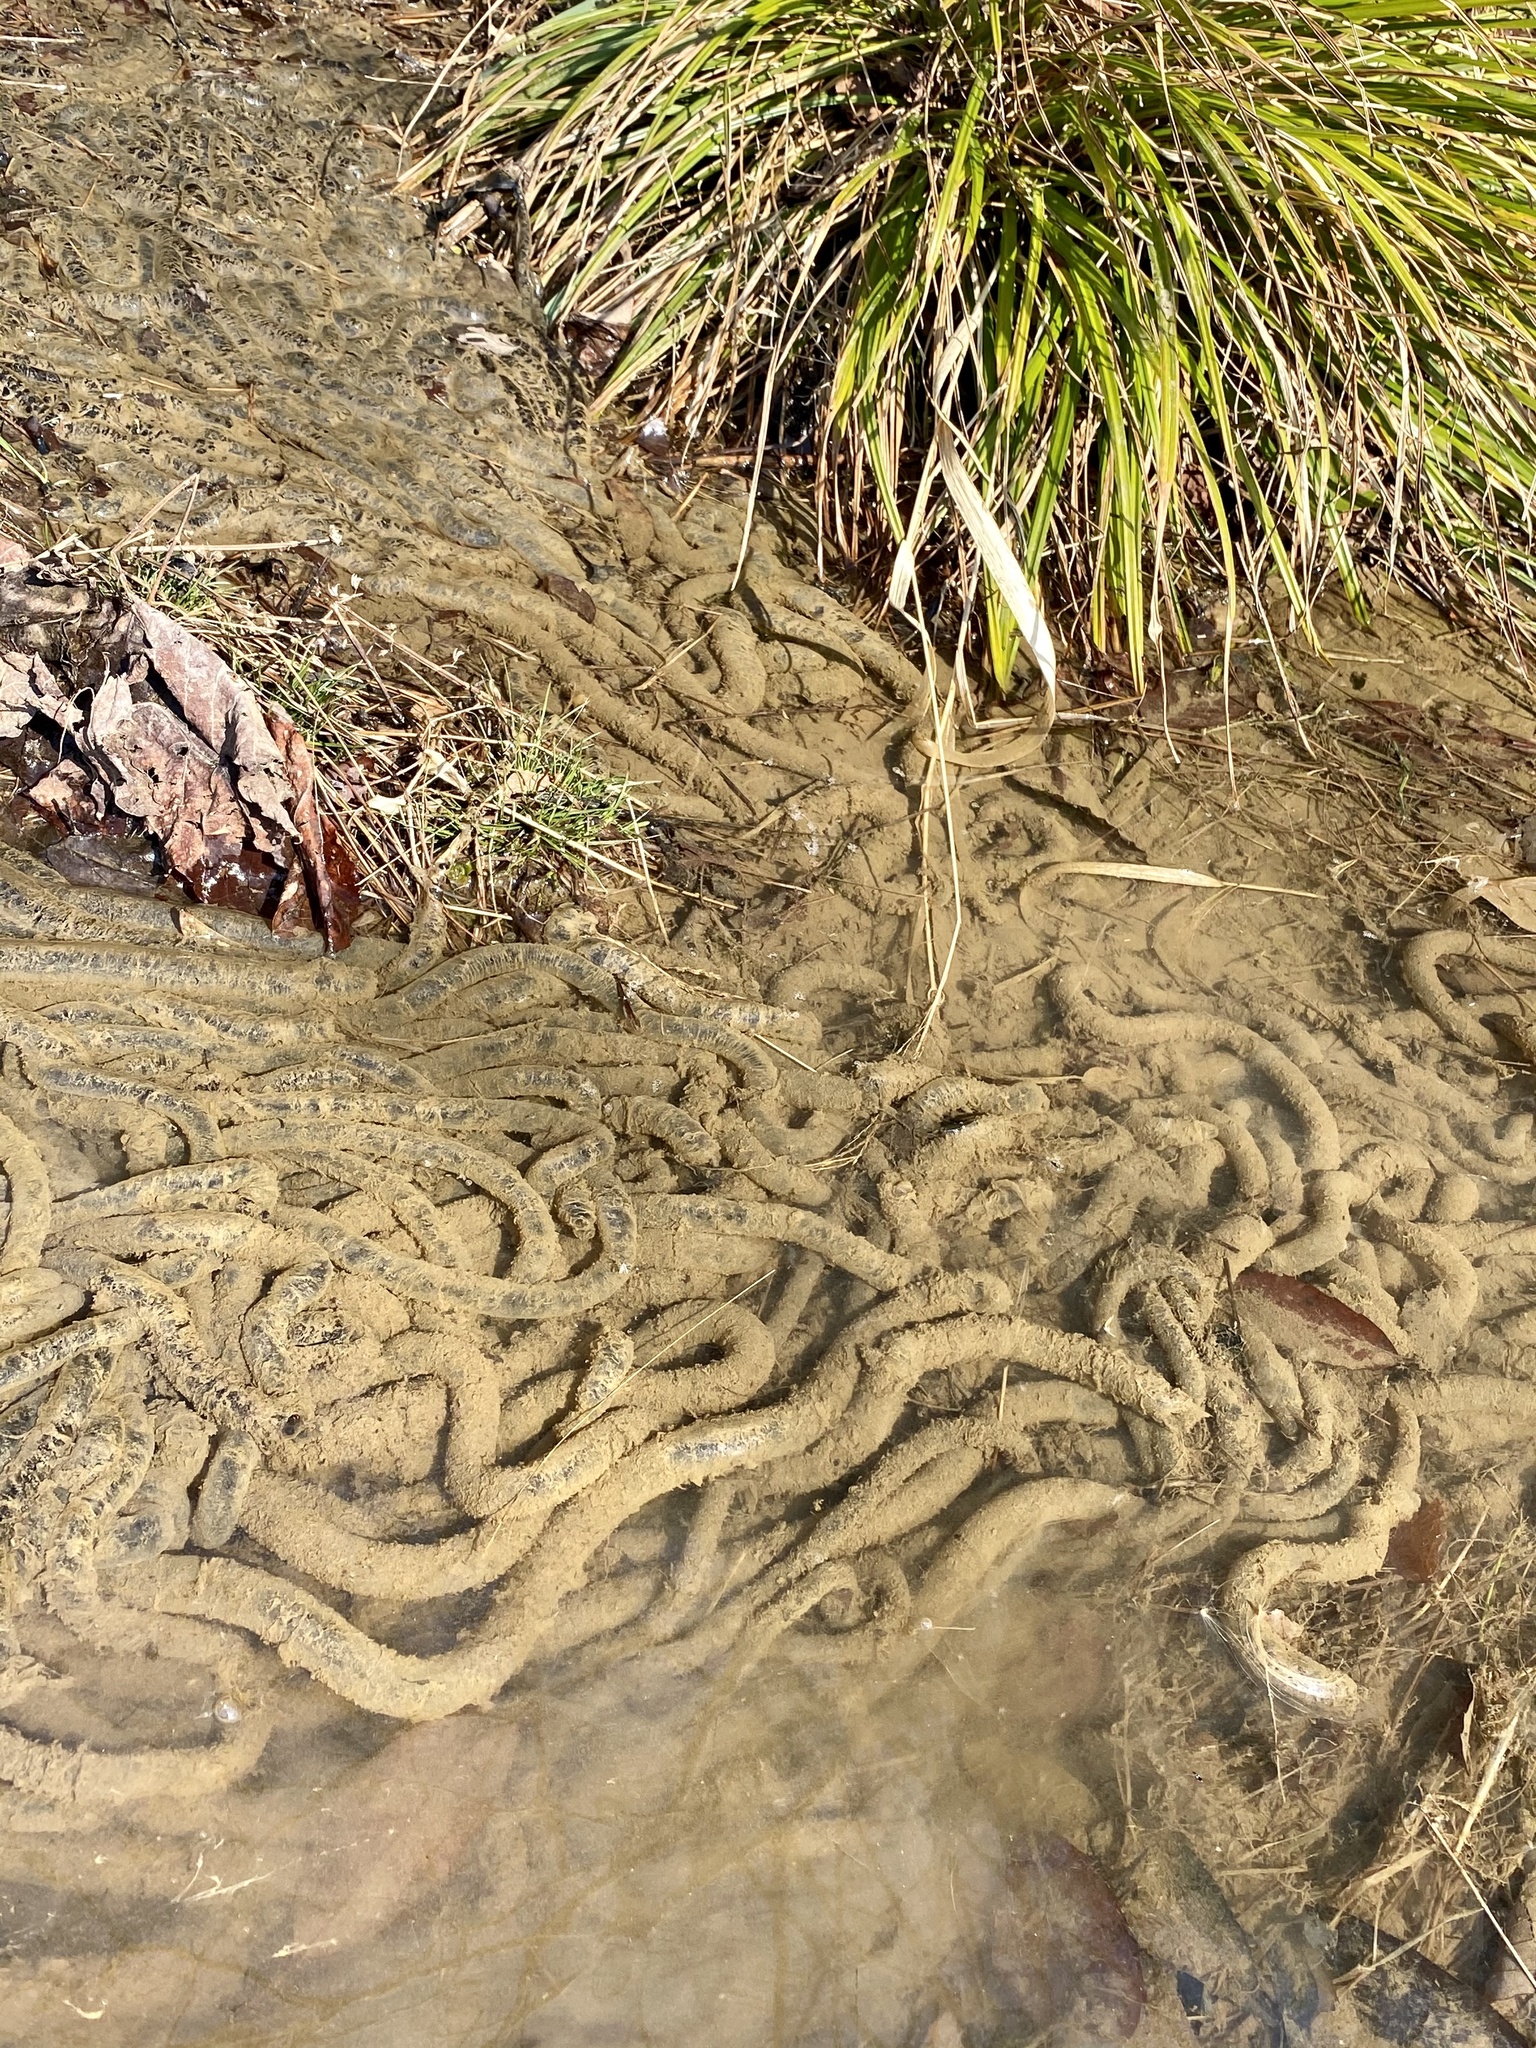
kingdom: Animalia
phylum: Chordata
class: Amphibia
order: Anura
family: Bufonidae
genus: Bufo
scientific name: Bufo japonicus
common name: Japanese common toad
